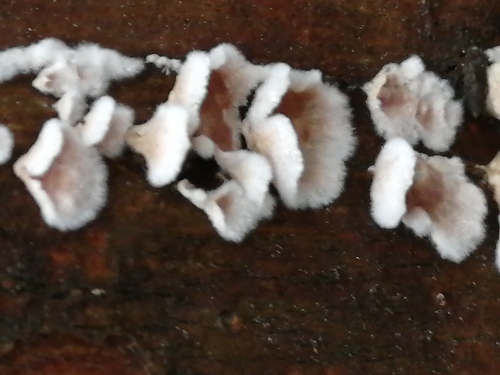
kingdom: Fungi
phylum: Basidiomycota
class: Agaricomycetes
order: Agaricales
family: Cyphellaceae
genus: Chondrostereum
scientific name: Chondrostereum purpureum
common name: Silver leaf disease
